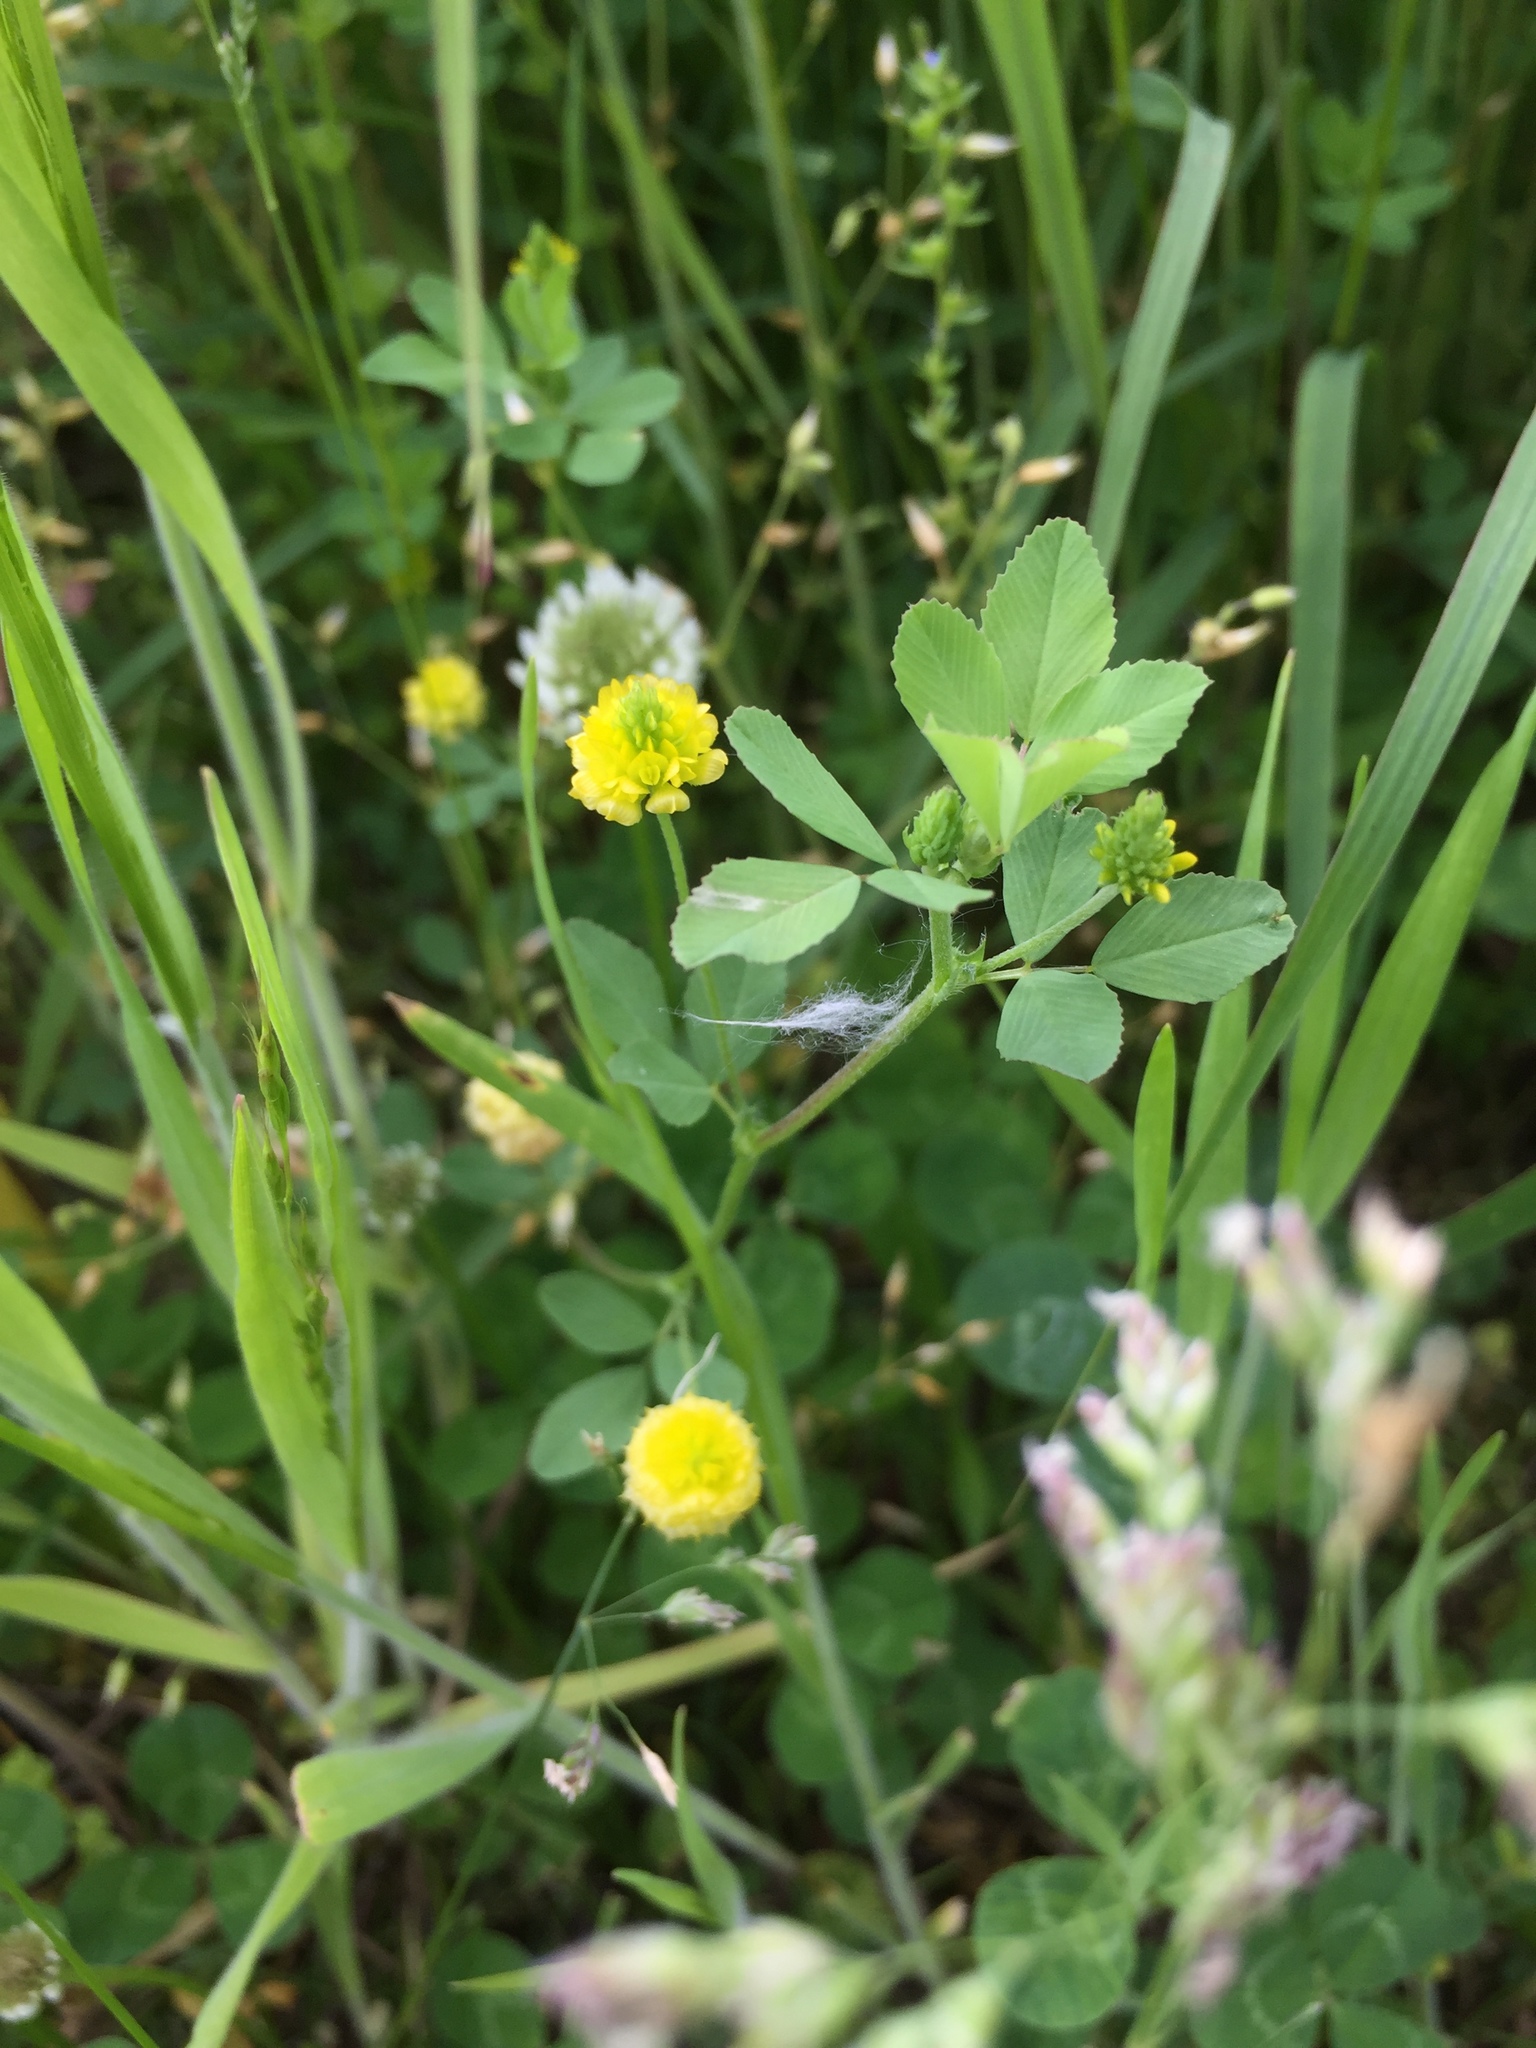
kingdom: Plantae
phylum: Tracheophyta
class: Magnoliopsida
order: Fabales
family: Fabaceae
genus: Trifolium
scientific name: Trifolium campestre
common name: Field clover
